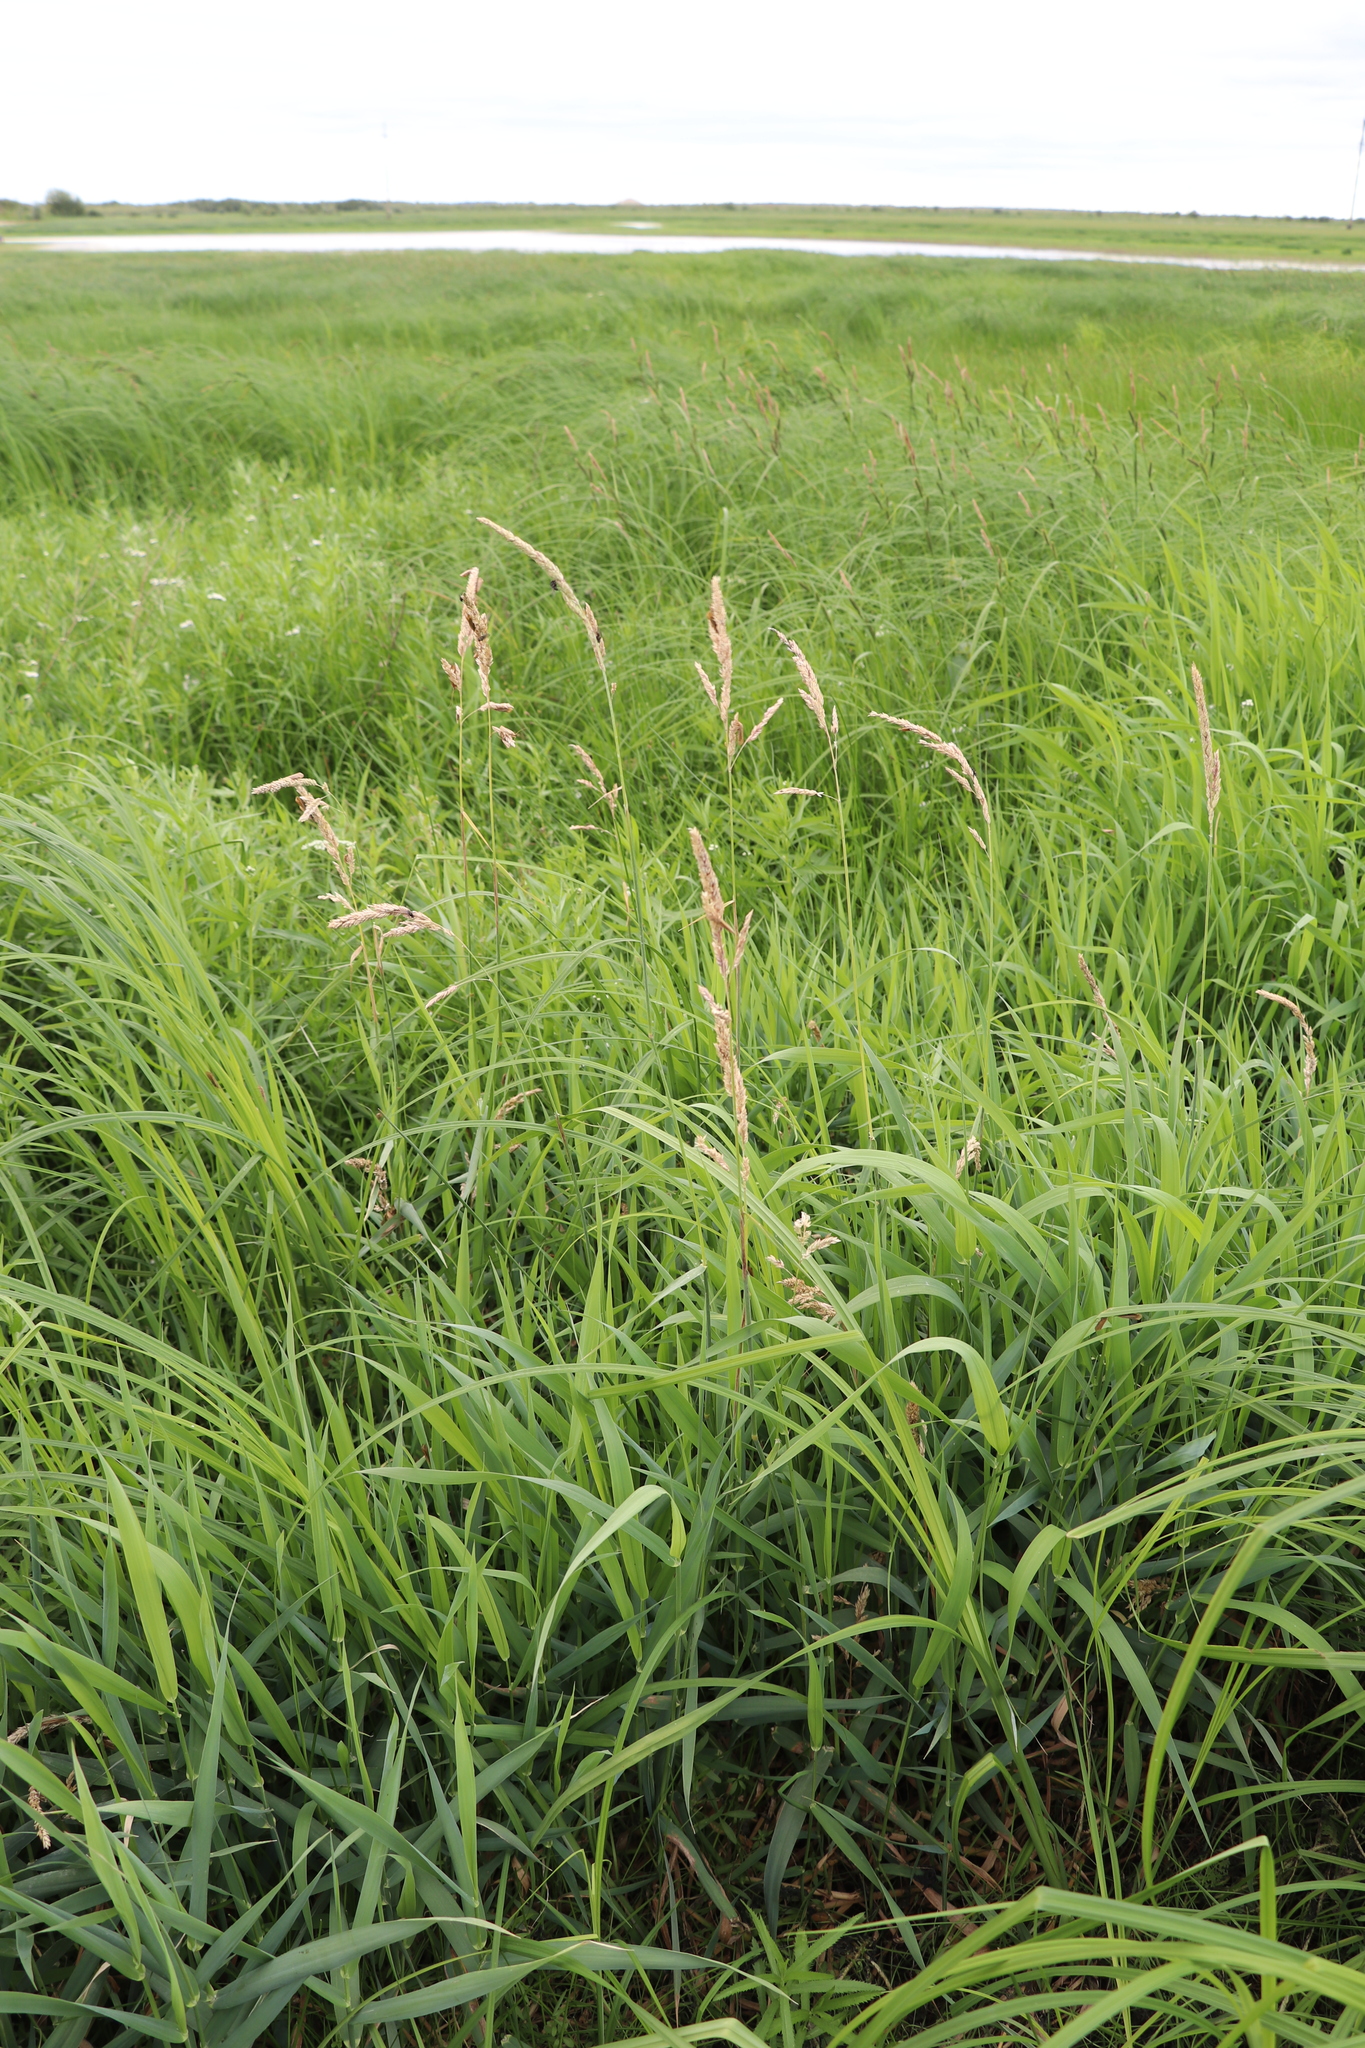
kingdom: Plantae
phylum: Tracheophyta
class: Liliopsida
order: Poales
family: Poaceae
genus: Phalaris
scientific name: Phalaris arundinacea
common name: Reed canary-grass
